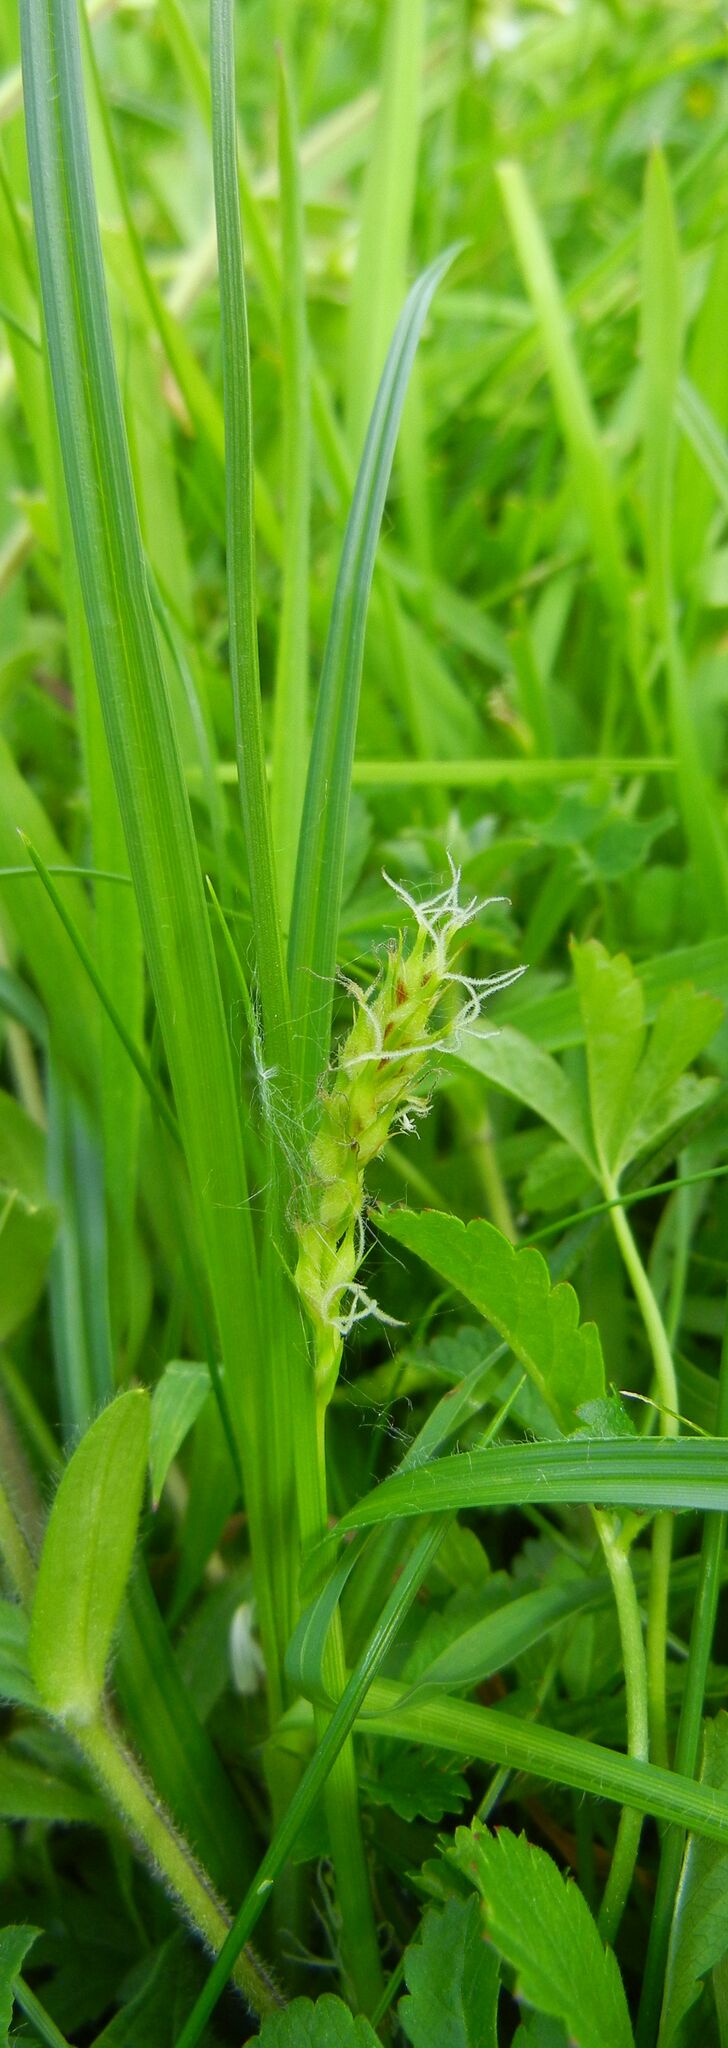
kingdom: Plantae
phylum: Tracheophyta
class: Liliopsida
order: Poales
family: Cyperaceae
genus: Carex
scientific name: Carex hirta
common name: Hairy sedge
